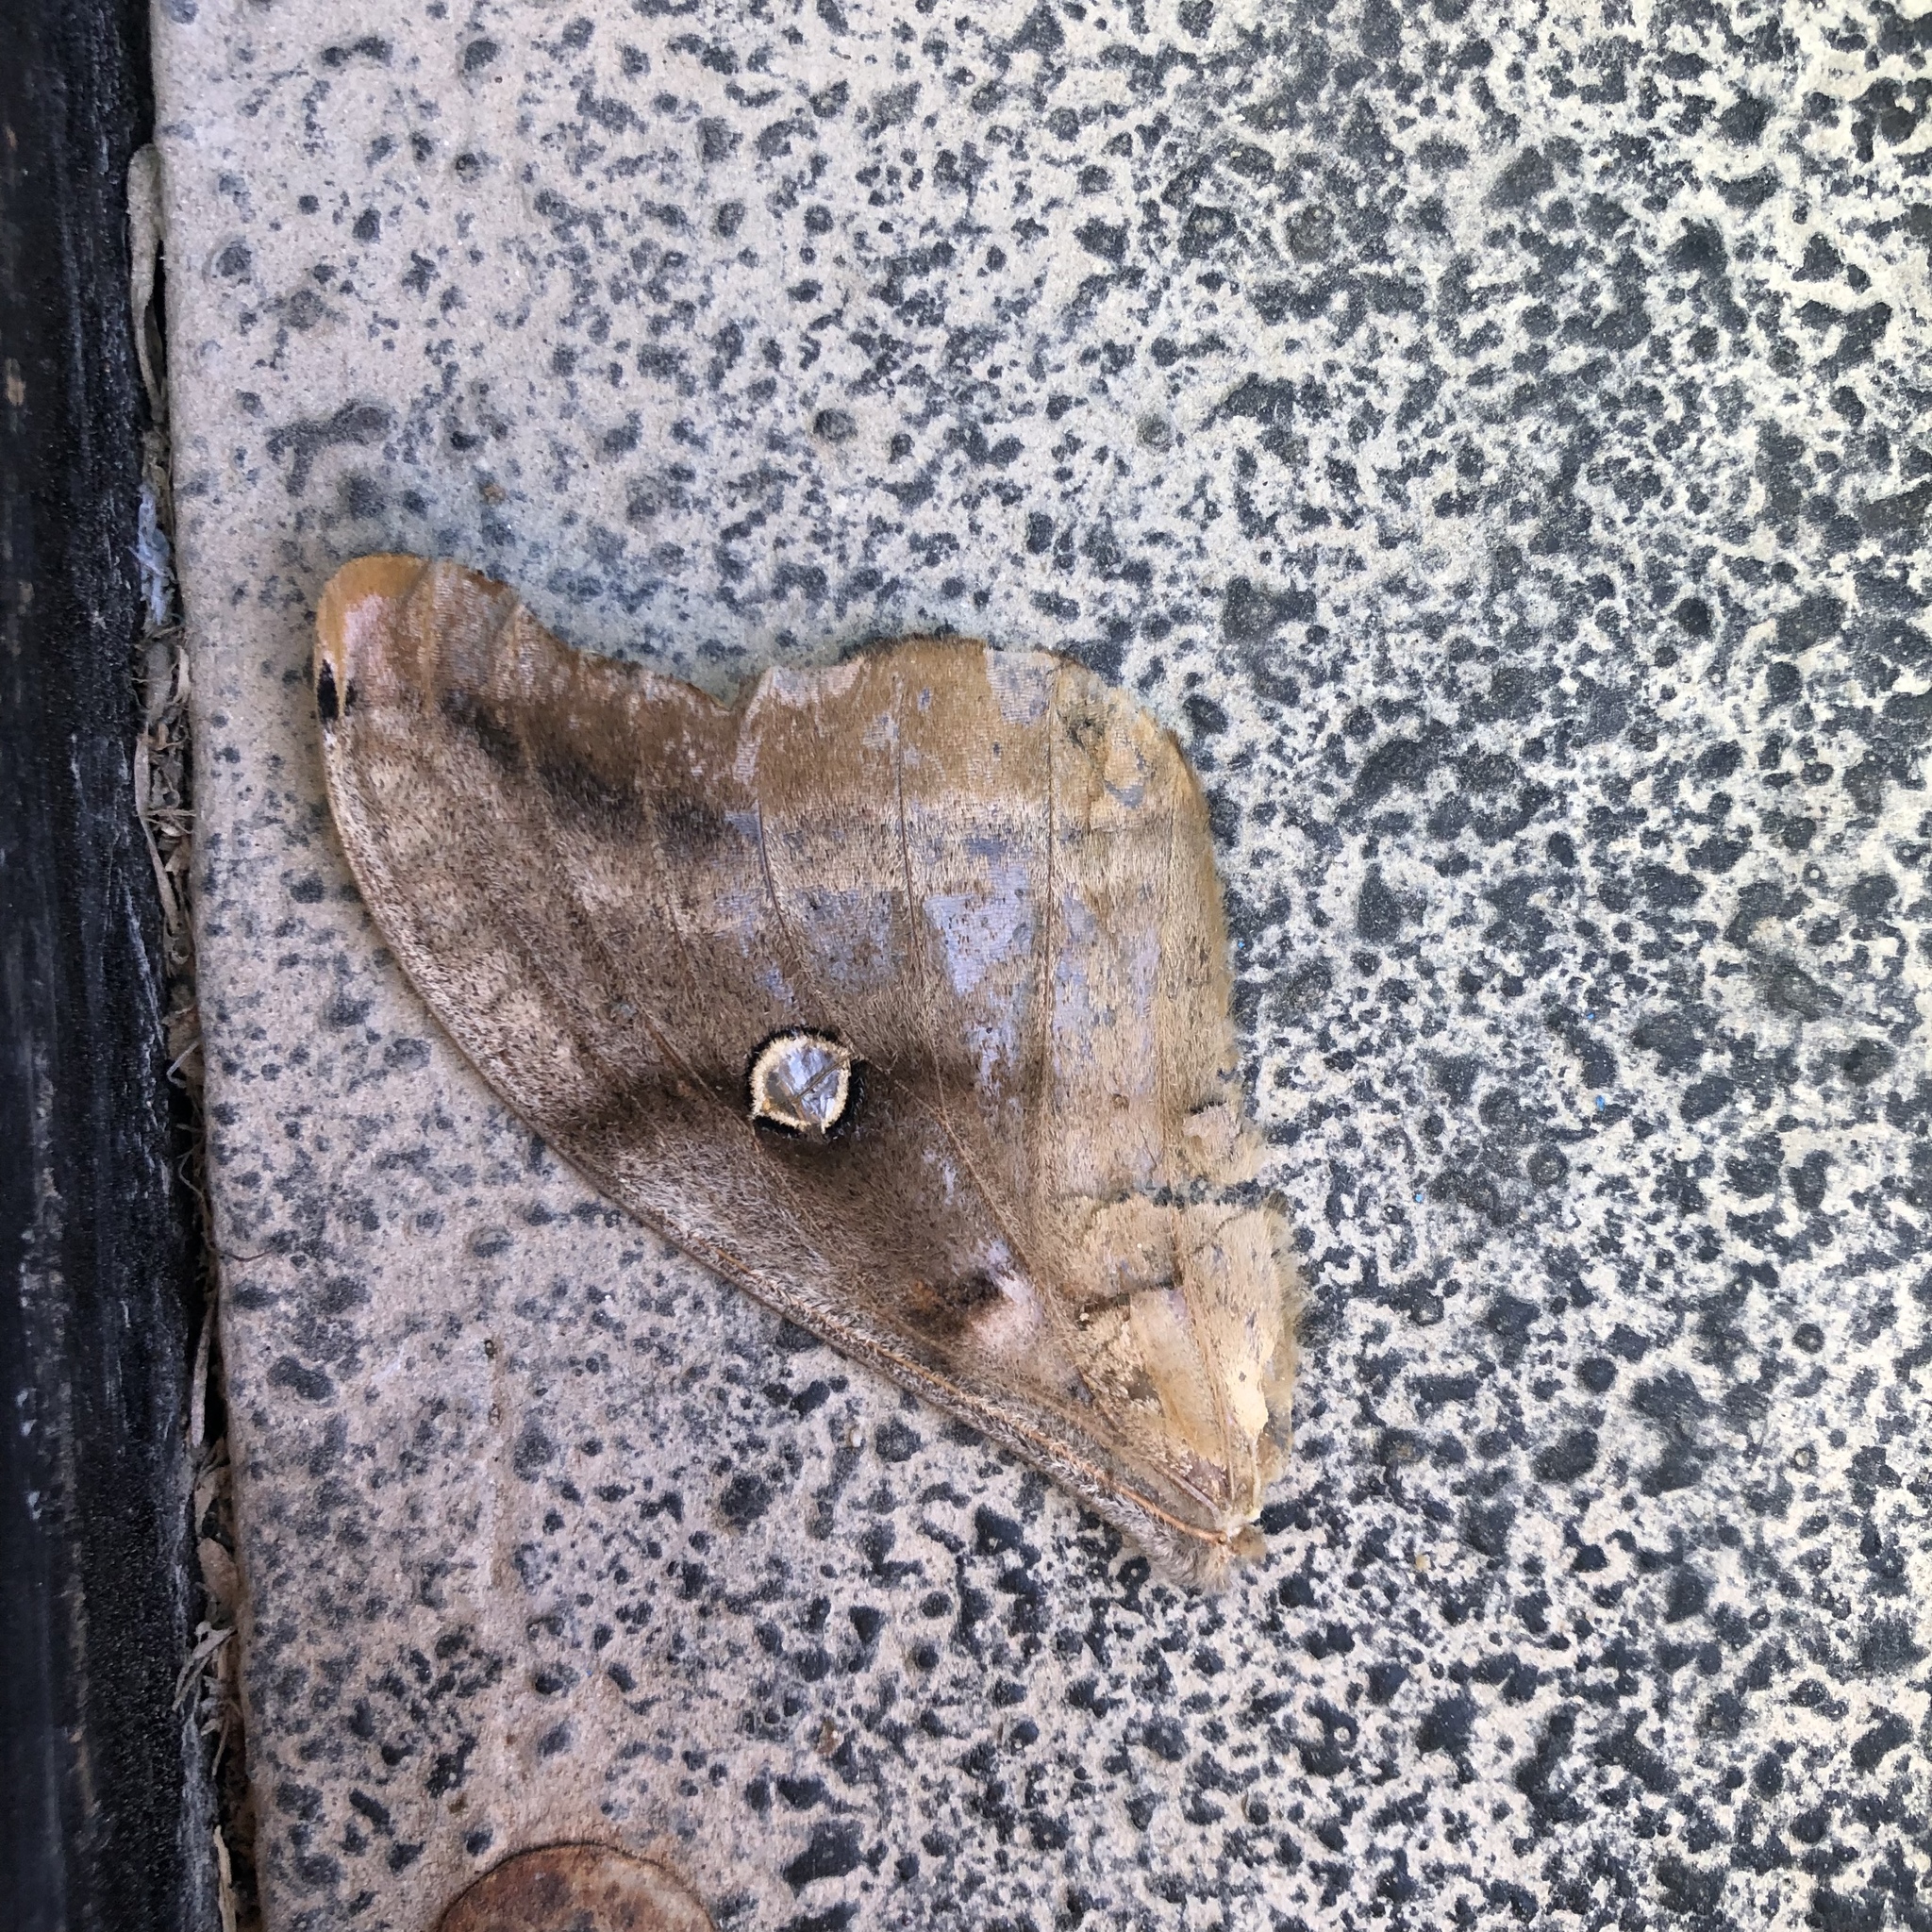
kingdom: Animalia
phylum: Arthropoda
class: Insecta
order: Lepidoptera
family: Saturniidae
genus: Antheraea
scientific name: Antheraea polyphemus
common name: Polyphemus moth
